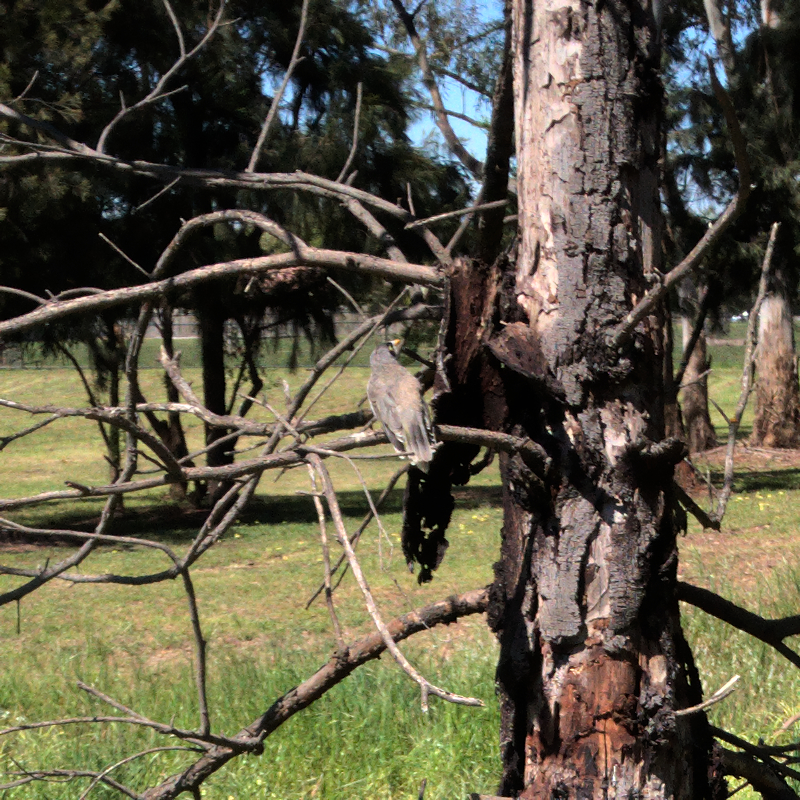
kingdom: Animalia
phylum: Chordata
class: Aves
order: Passeriformes
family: Meliphagidae
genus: Manorina
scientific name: Manorina melanocephala
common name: Noisy miner
